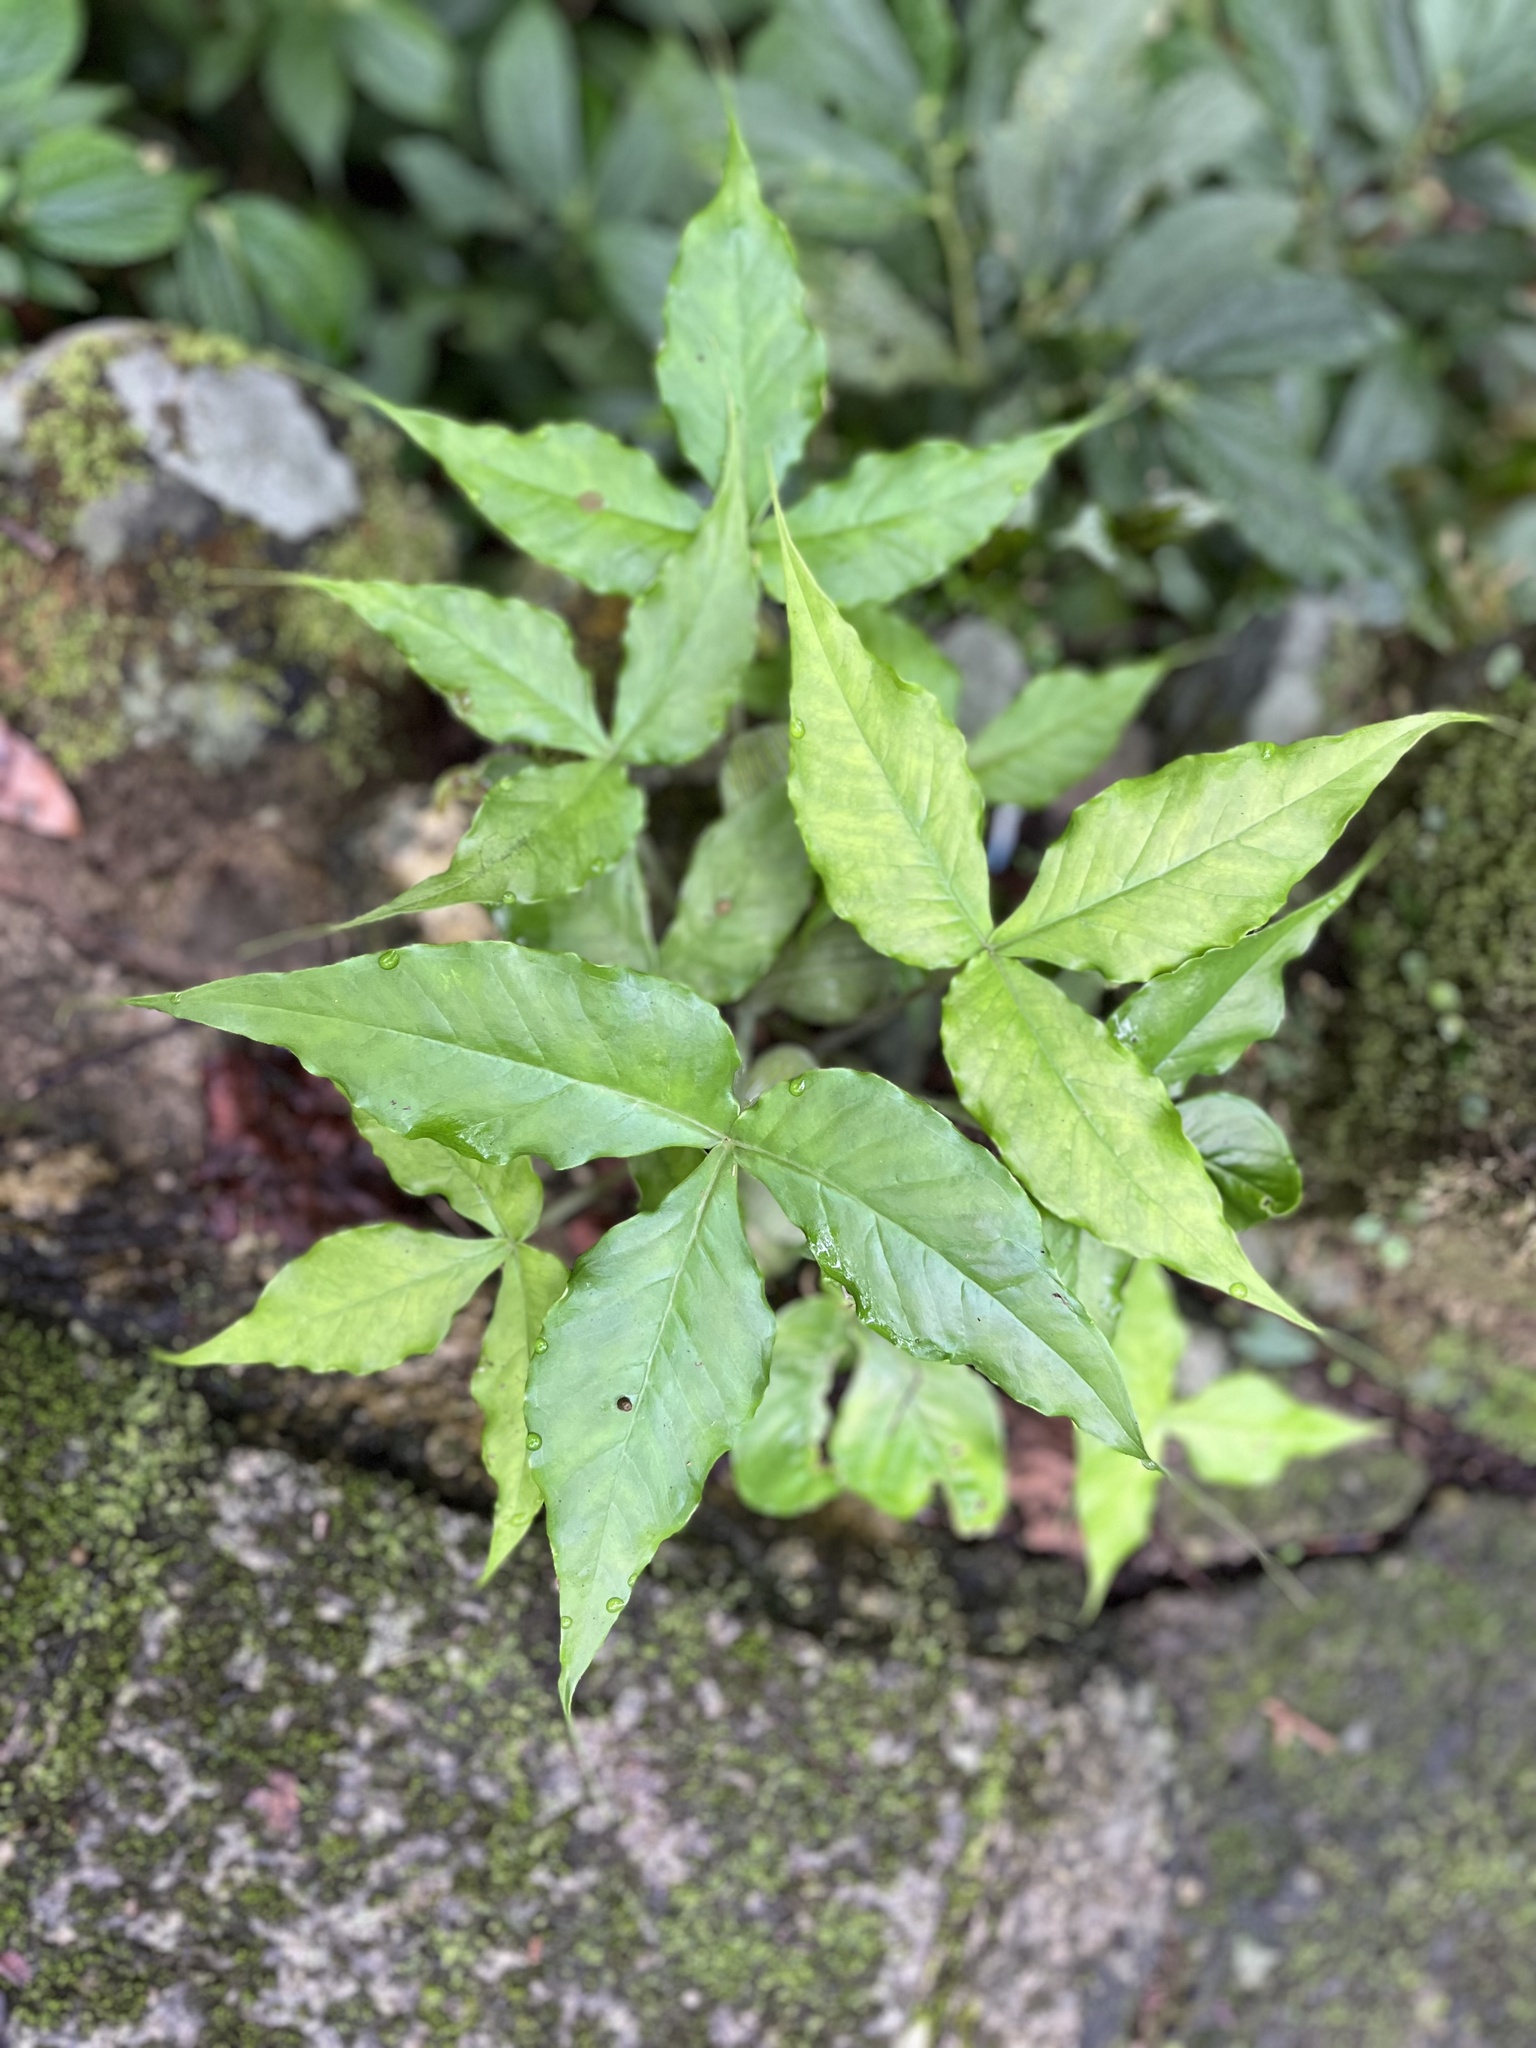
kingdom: Plantae
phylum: Tracheophyta
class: Liliopsida
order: Alismatales
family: Araceae
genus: Arisaema
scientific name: Arisaema ringens
